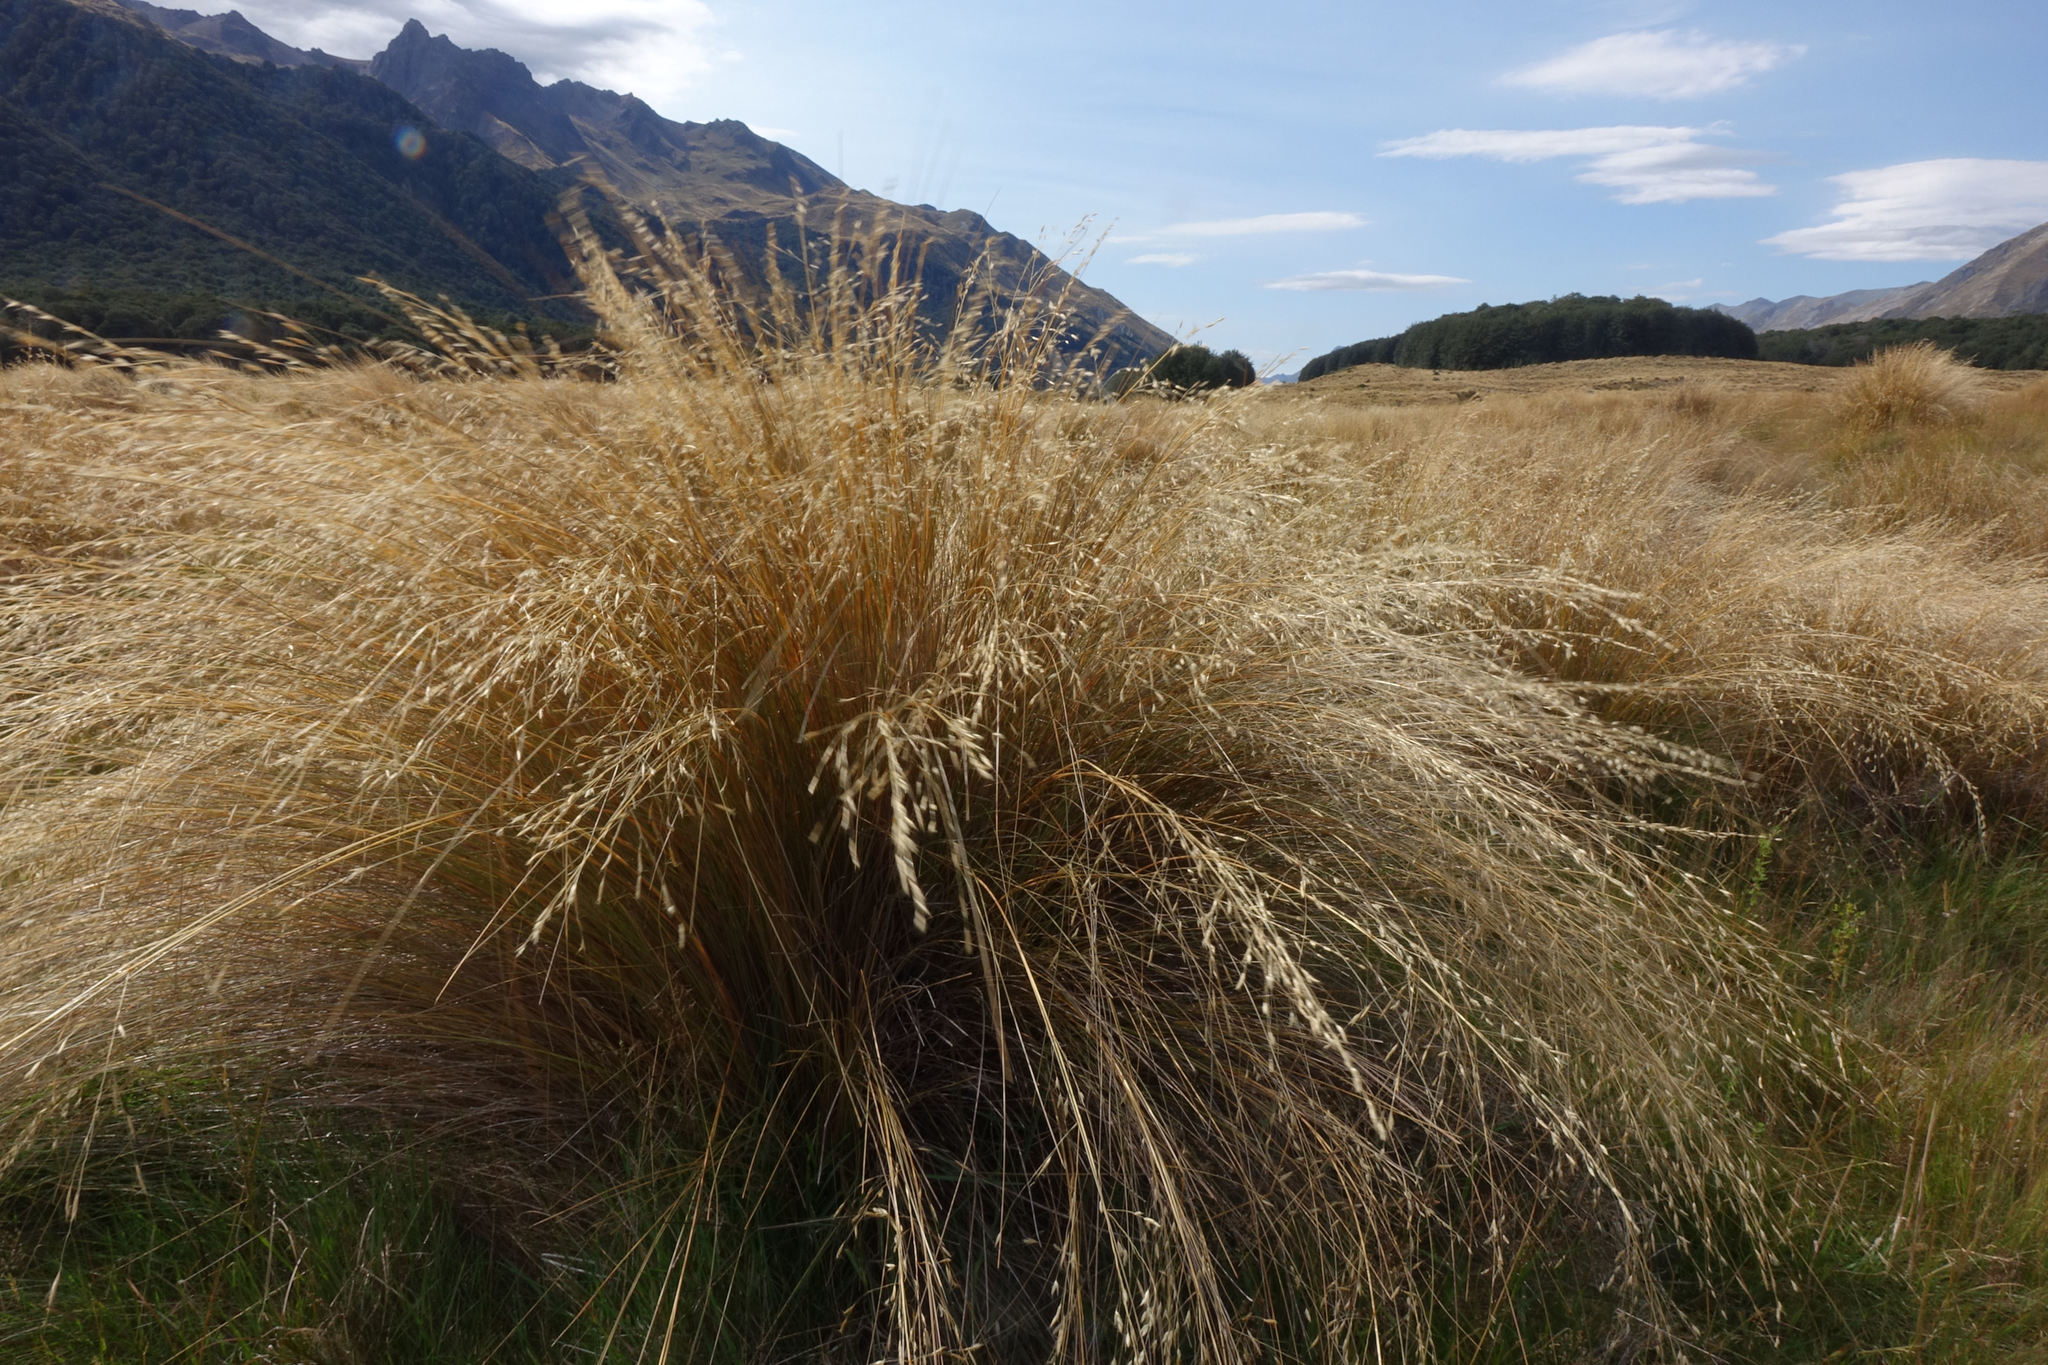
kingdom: Plantae
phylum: Tracheophyta
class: Liliopsida
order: Poales
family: Poaceae
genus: Chionochloa
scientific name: Chionochloa rubra
